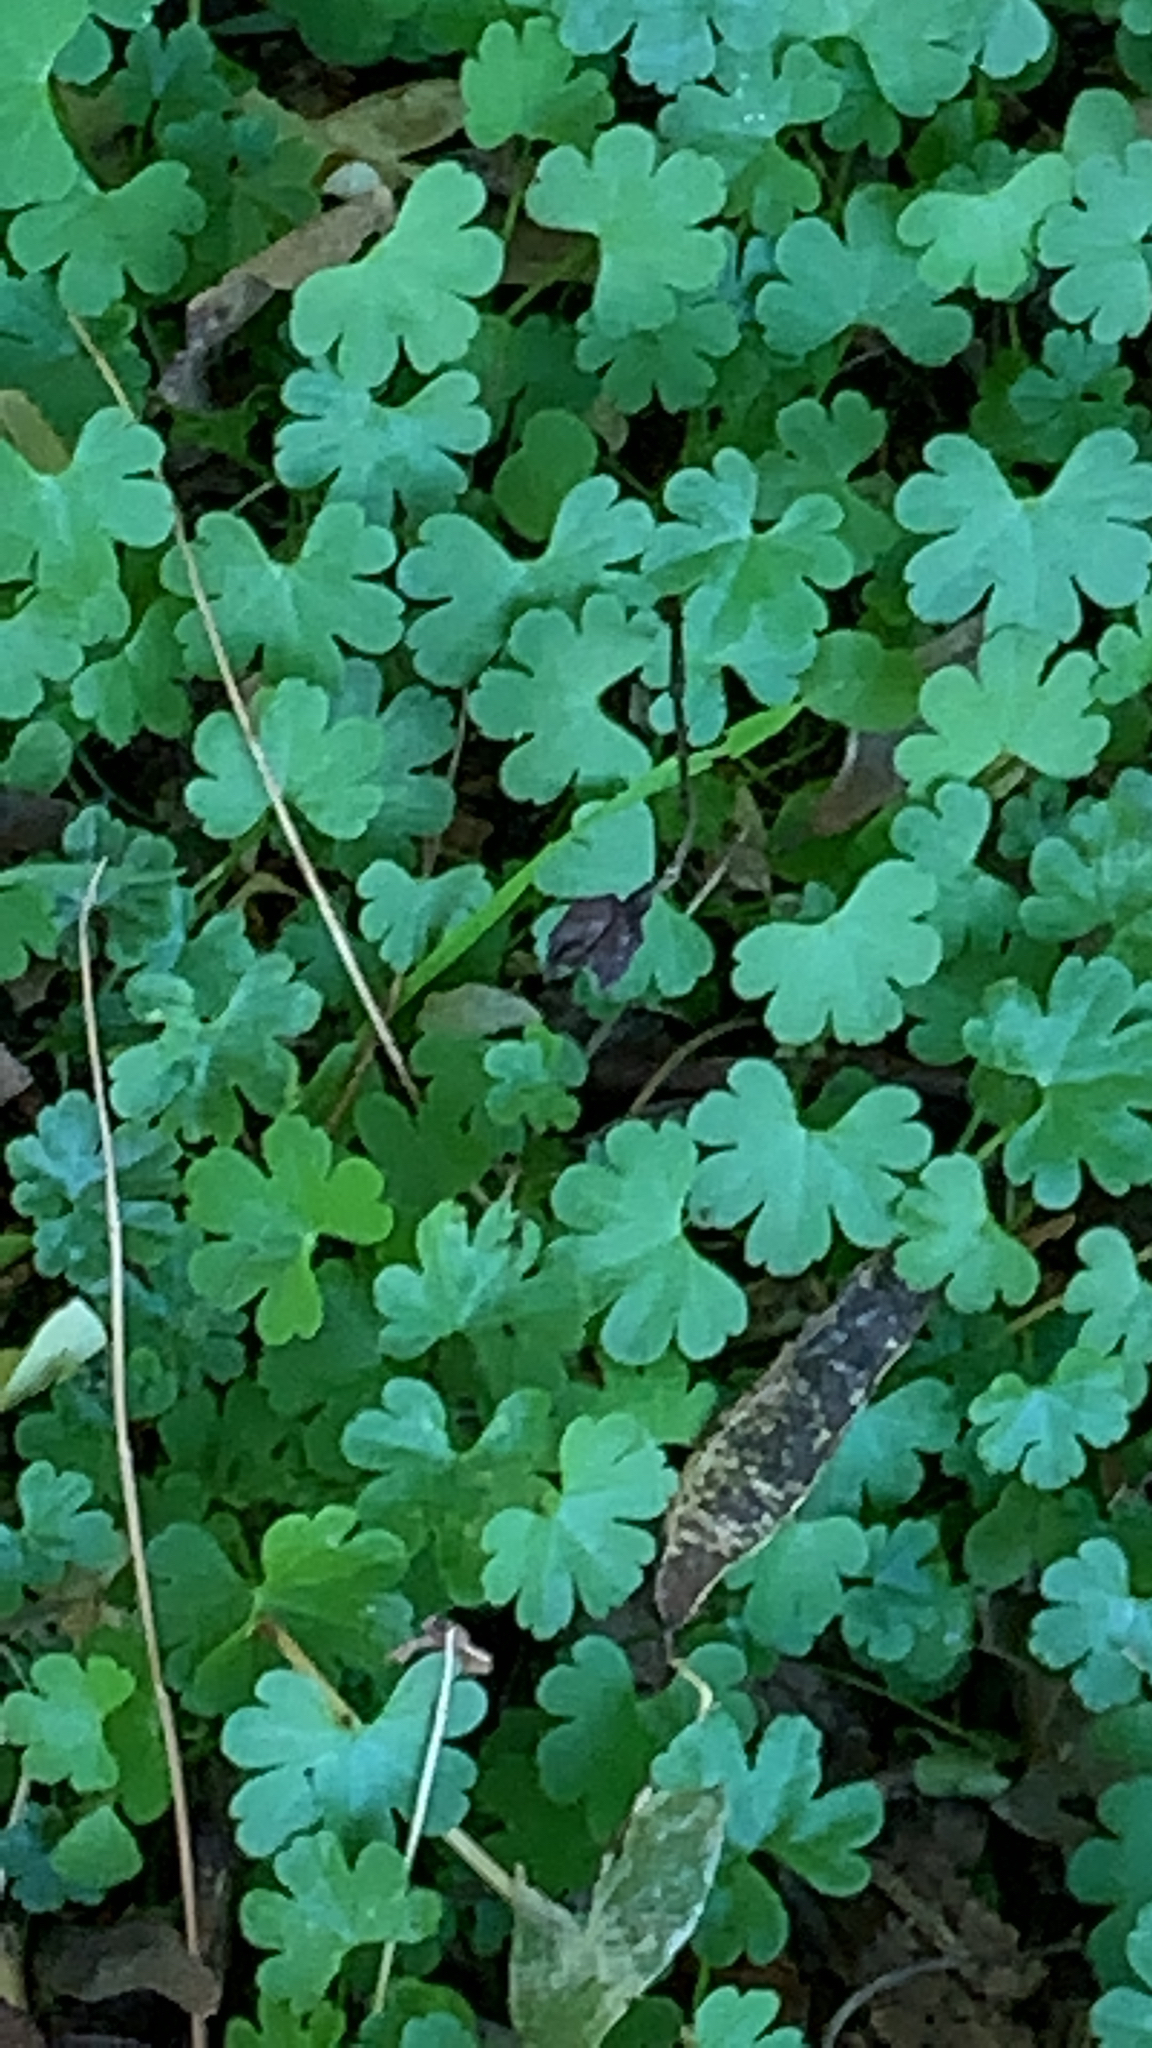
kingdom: Plantae
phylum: Tracheophyta
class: Magnoliopsida
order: Geraniales
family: Geraniaceae
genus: Geranium
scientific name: Geranium lucidum
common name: Shining crane's-bill
